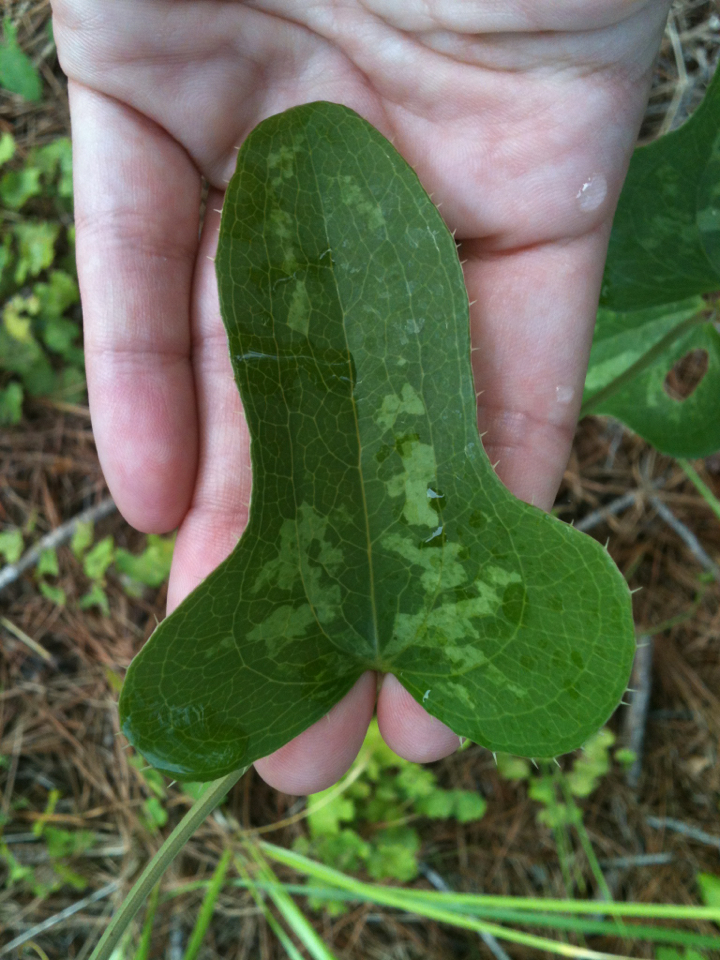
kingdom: Plantae
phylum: Tracheophyta
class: Liliopsida
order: Liliales
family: Smilacaceae
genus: Smilax
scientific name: Smilax bona-nox
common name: Catbrier
